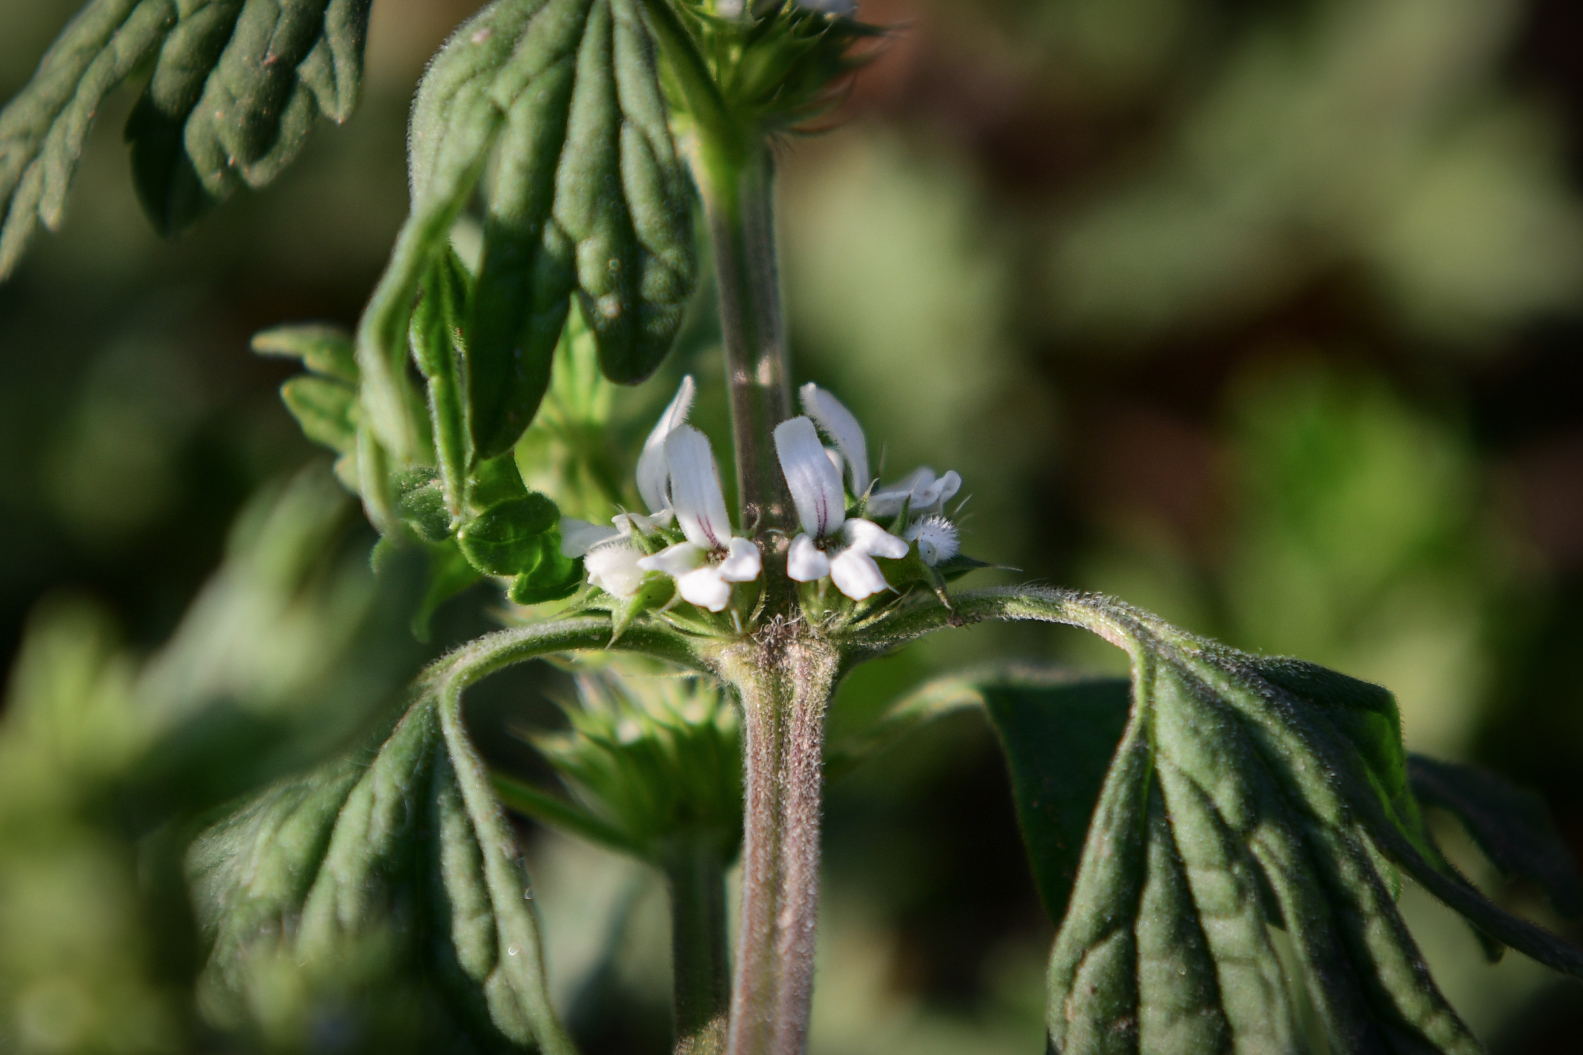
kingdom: Plantae
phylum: Tracheophyta
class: Magnoliopsida
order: Lamiales
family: Lamiaceae
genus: Lagopsis
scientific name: Lagopsis supina
